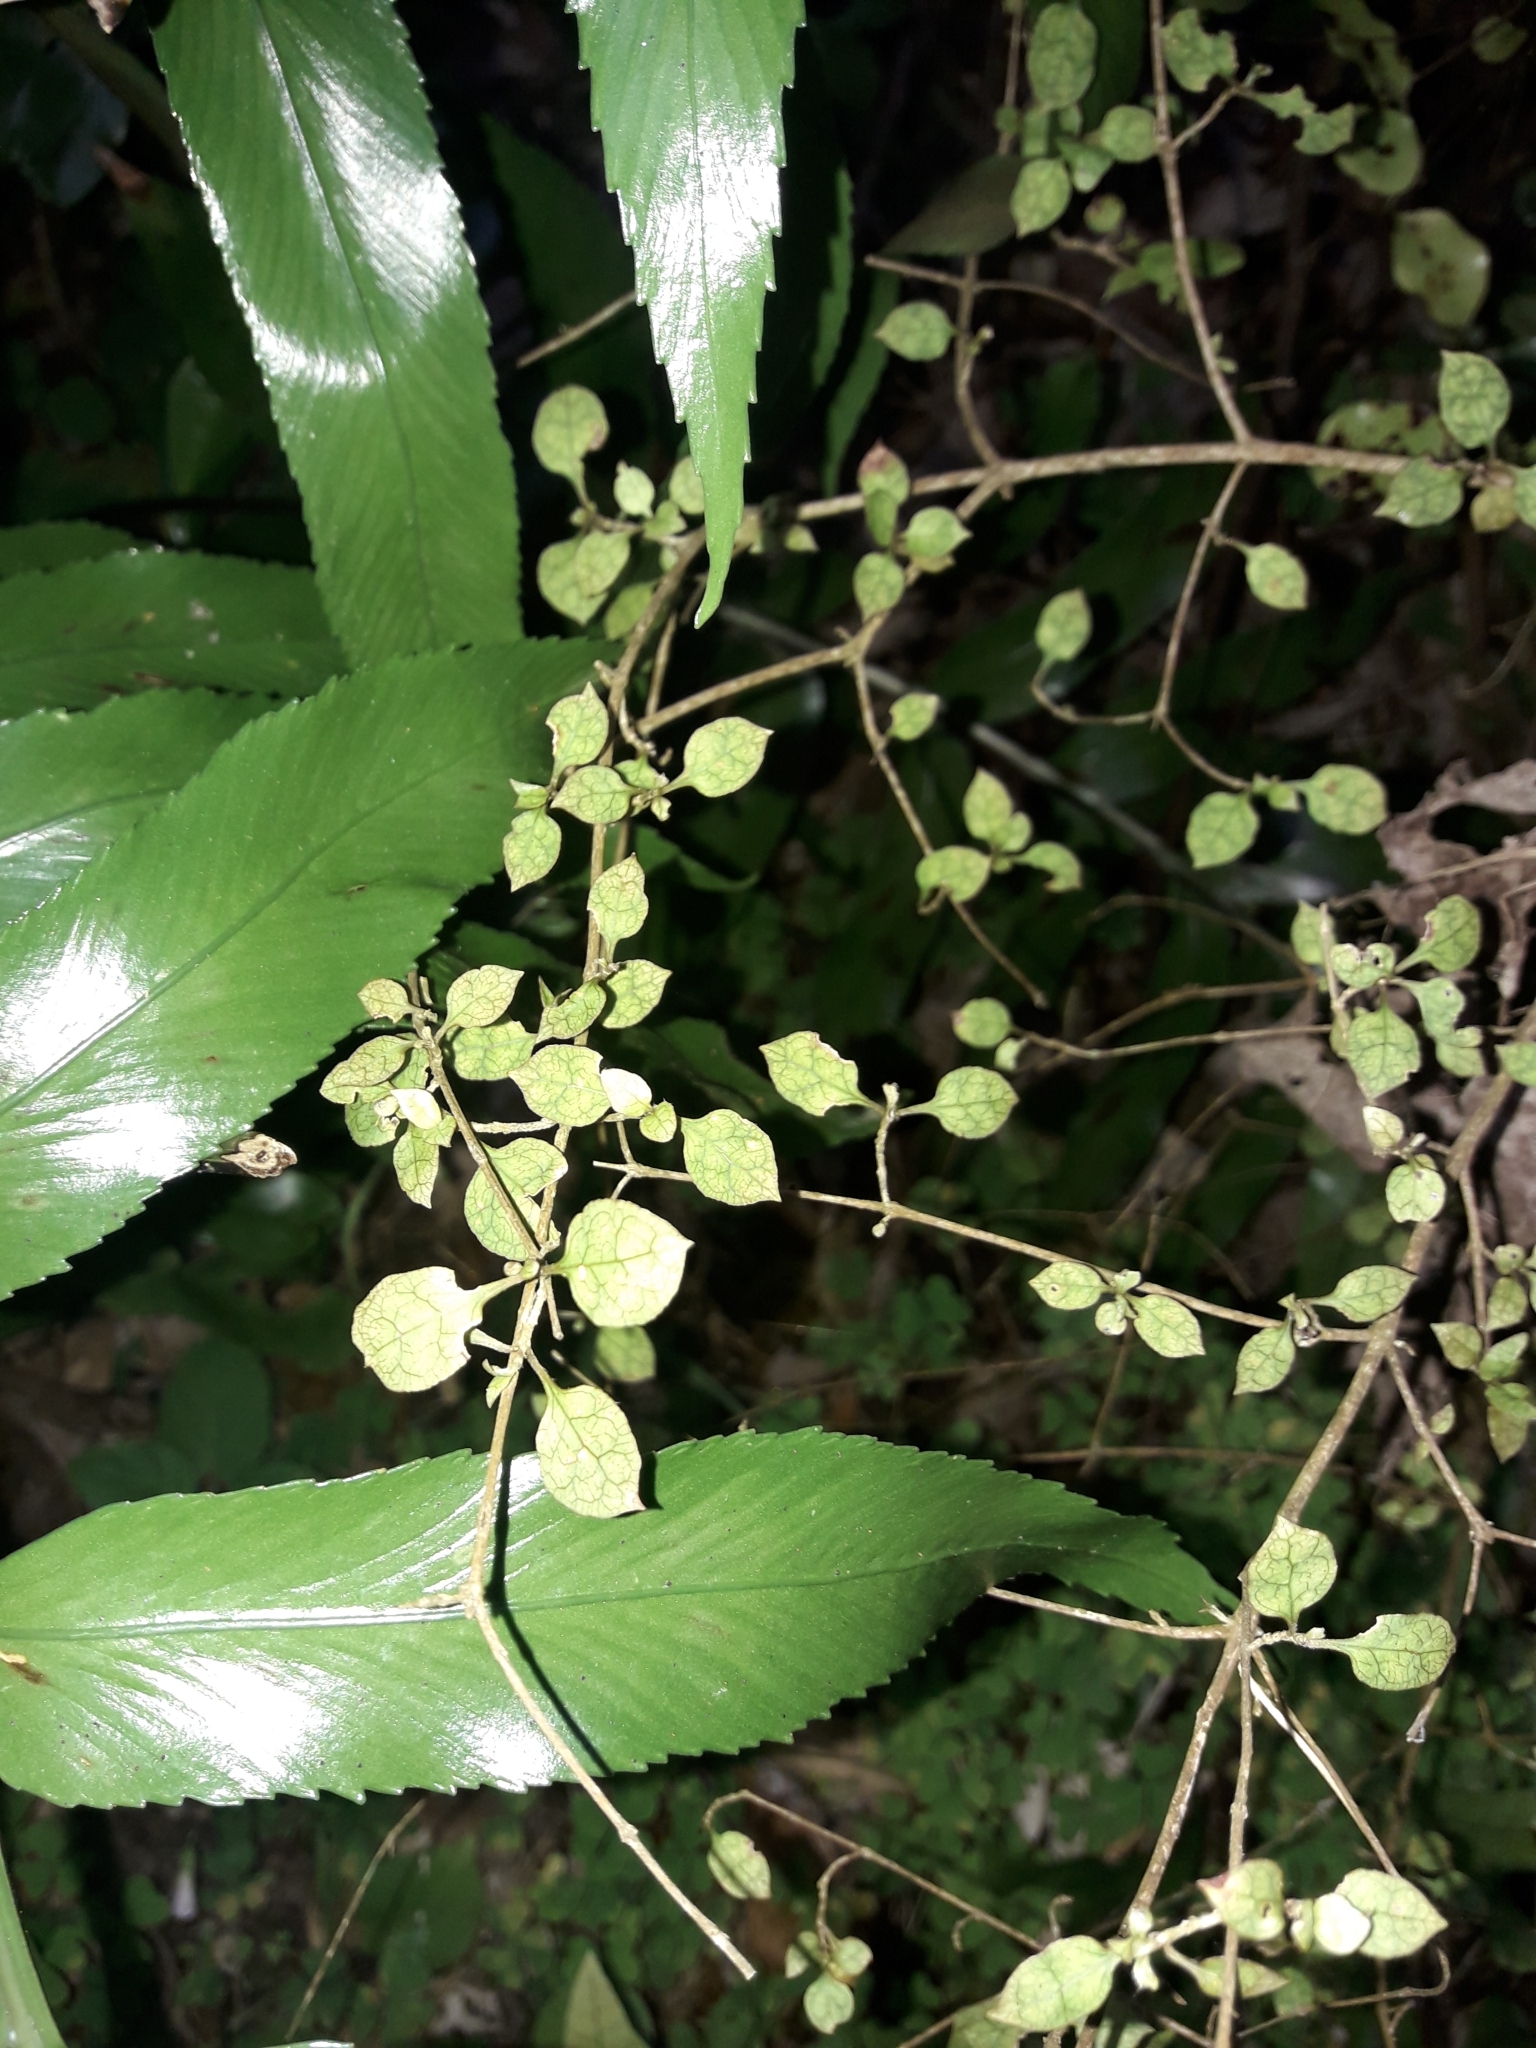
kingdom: Plantae
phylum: Tracheophyta
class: Magnoliopsida
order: Gentianales
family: Rubiaceae
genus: Coprosma
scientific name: Coprosma areolata
